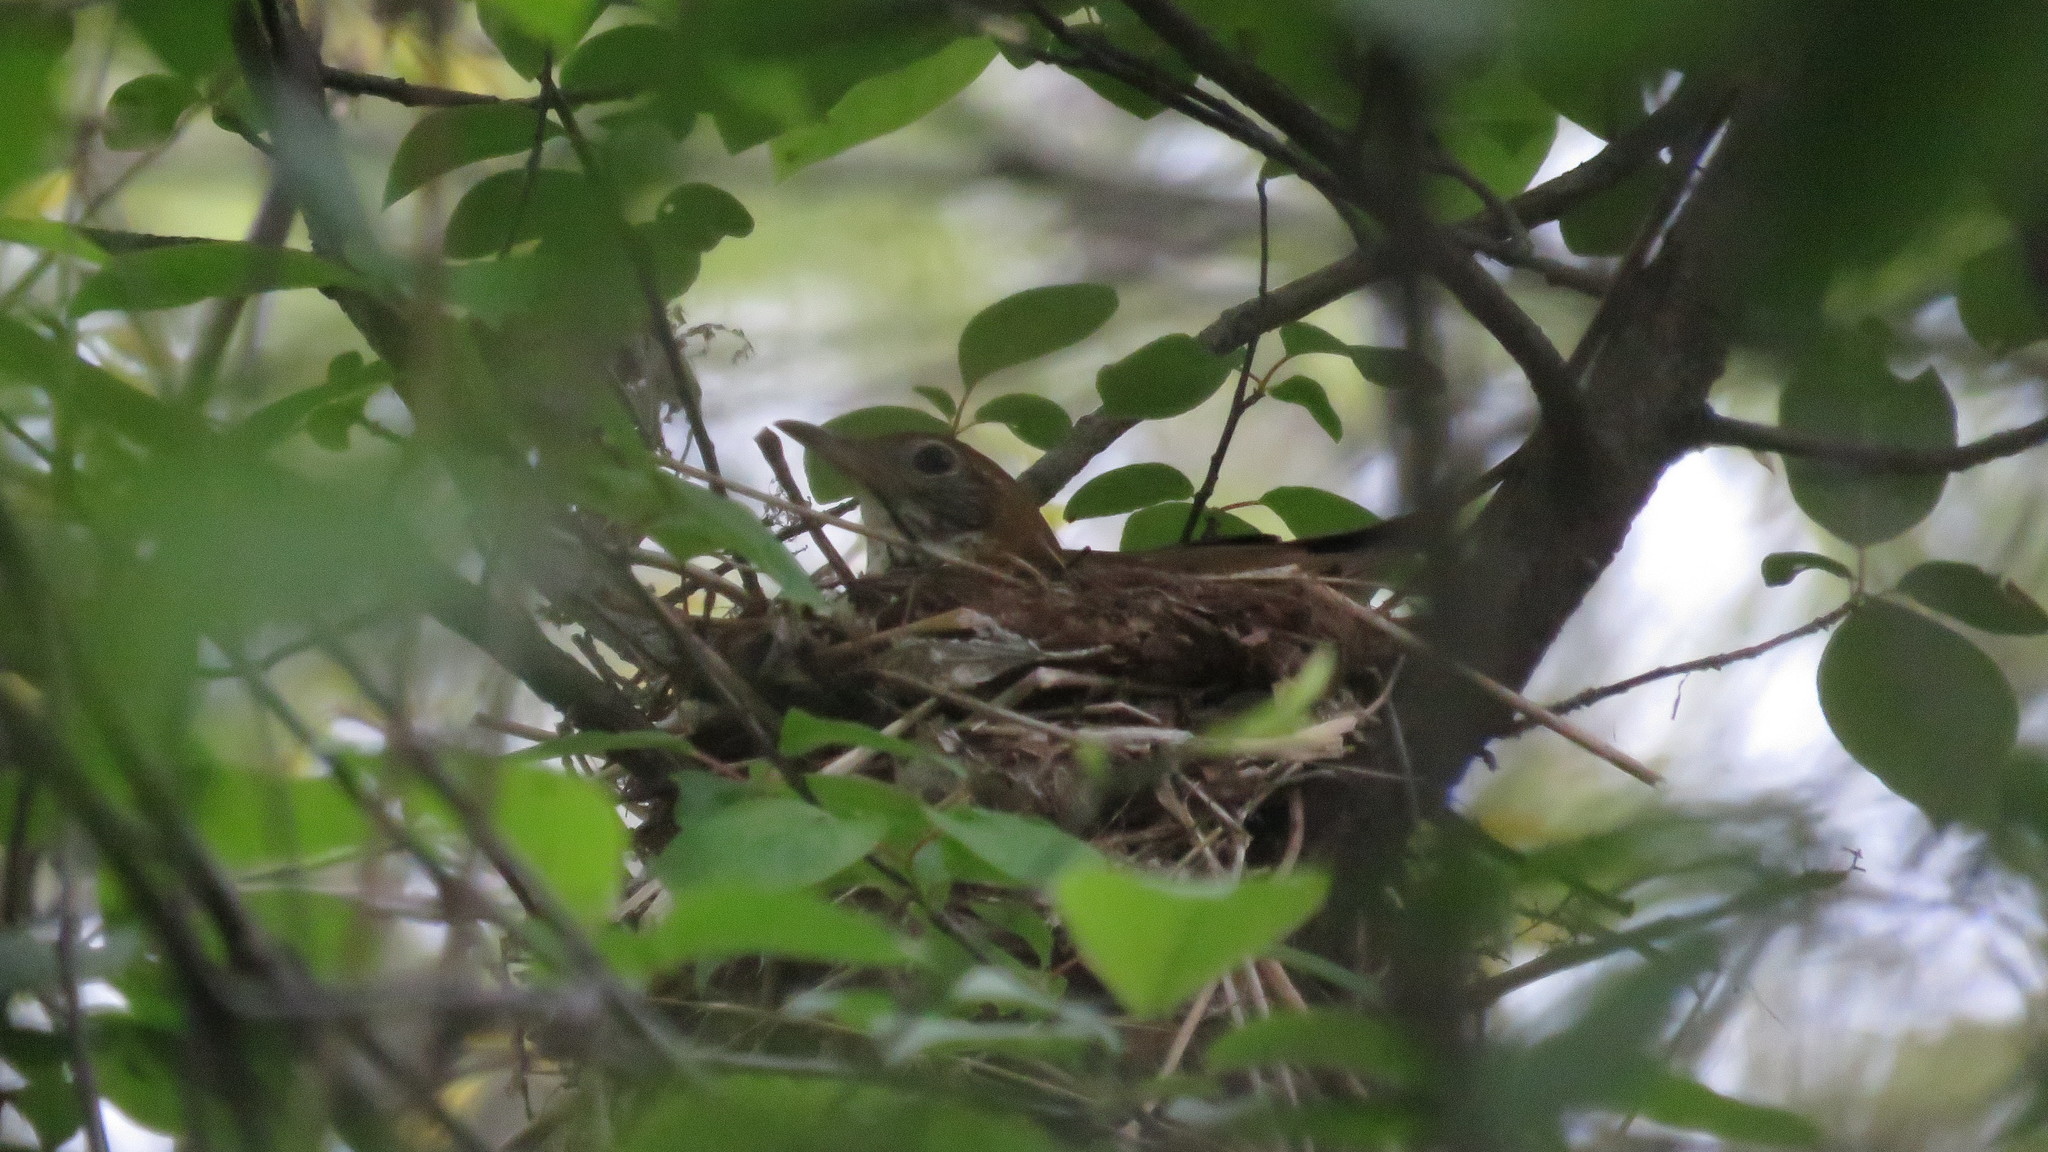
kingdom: Animalia
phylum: Chordata
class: Aves
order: Passeriformes
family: Turdidae
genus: Hylocichla
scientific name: Hylocichla mustelina
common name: Wood thrush
